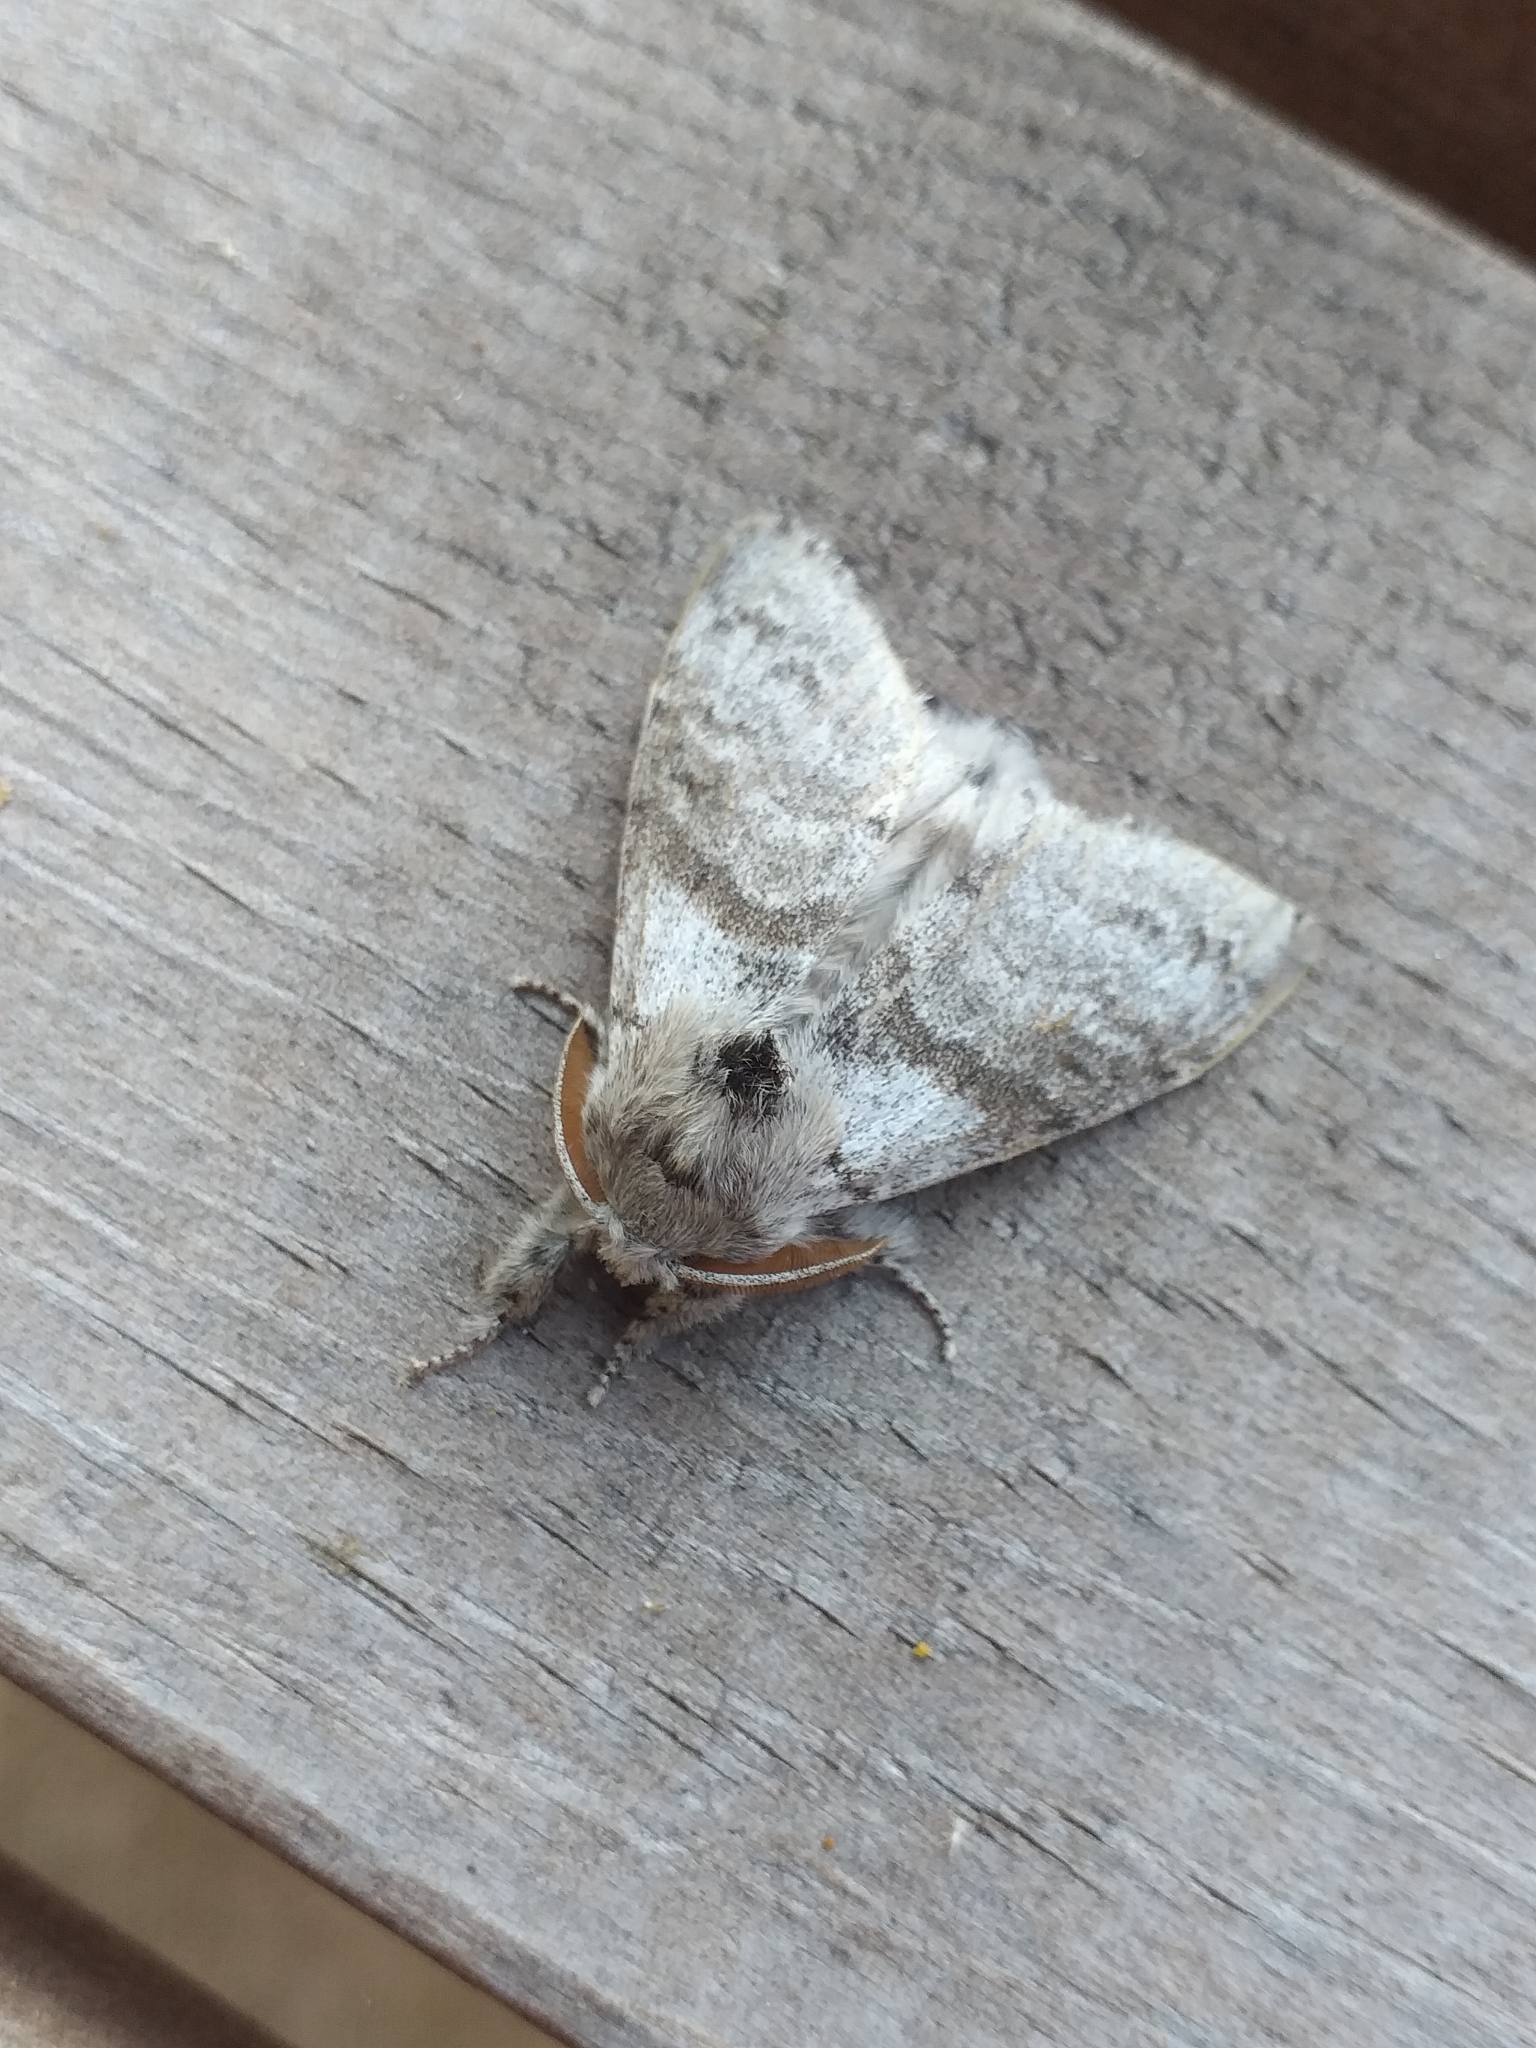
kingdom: Animalia
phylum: Arthropoda
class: Insecta
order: Lepidoptera
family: Erebidae
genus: Calliteara
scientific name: Calliteara pudibunda
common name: Pale tussock
